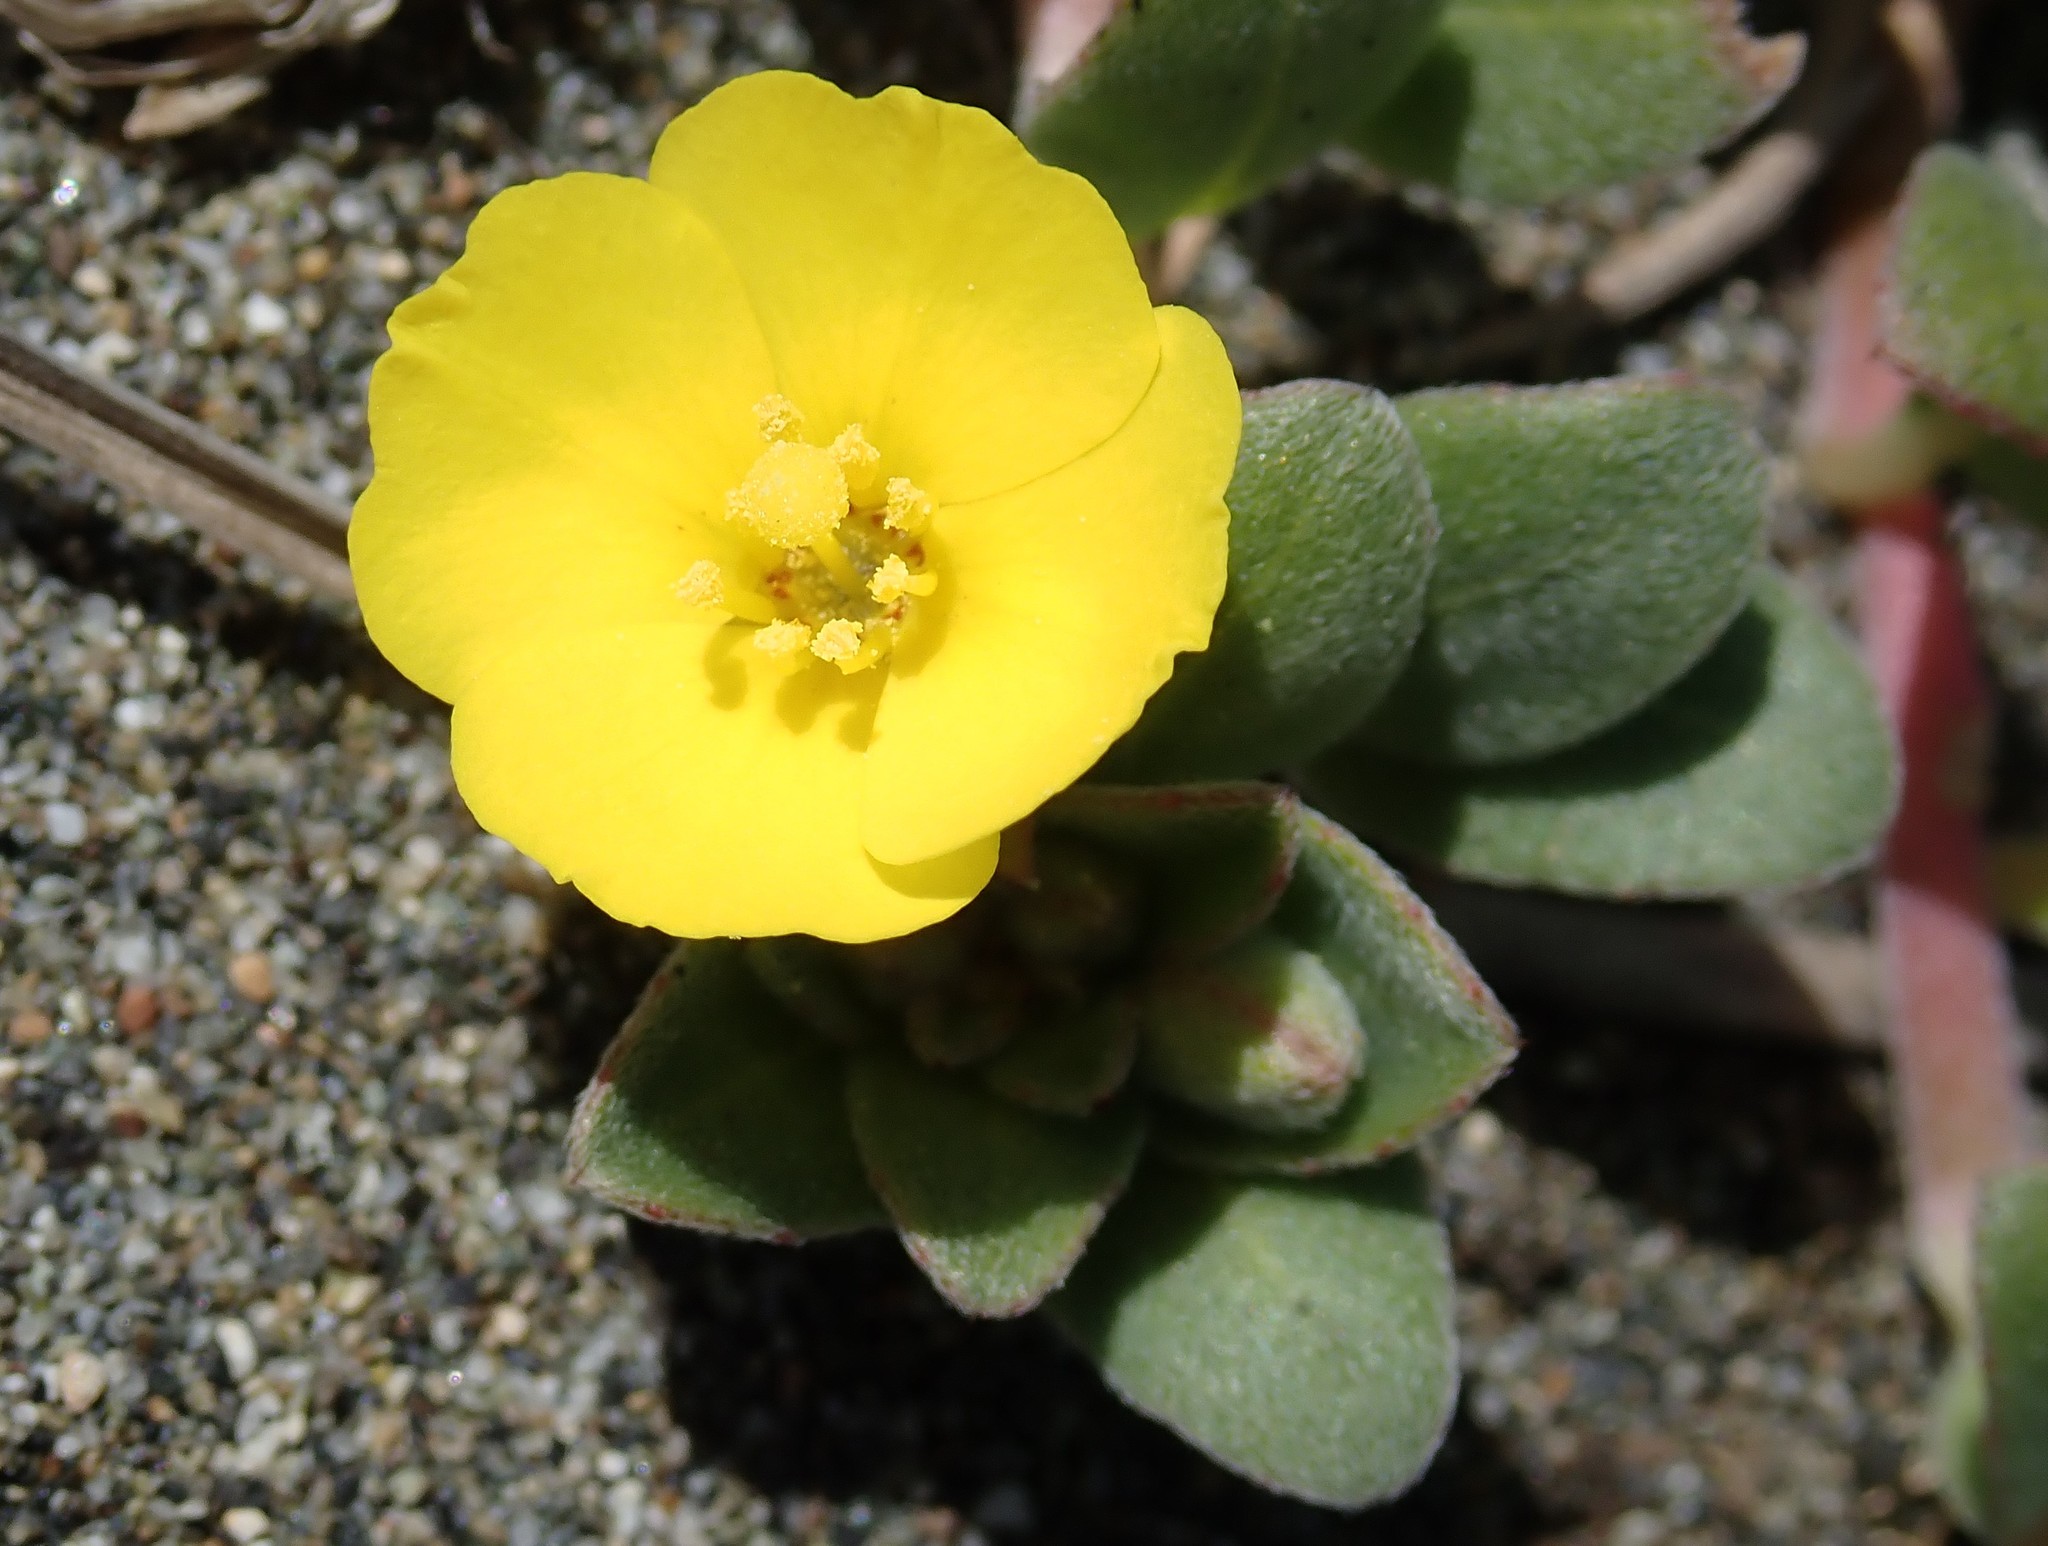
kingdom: Plantae
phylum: Tracheophyta
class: Magnoliopsida
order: Myrtales
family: Onagraceae
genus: Camissoniopsis
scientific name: Camissoniopsis cheiranthifolia
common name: Beach suncup
